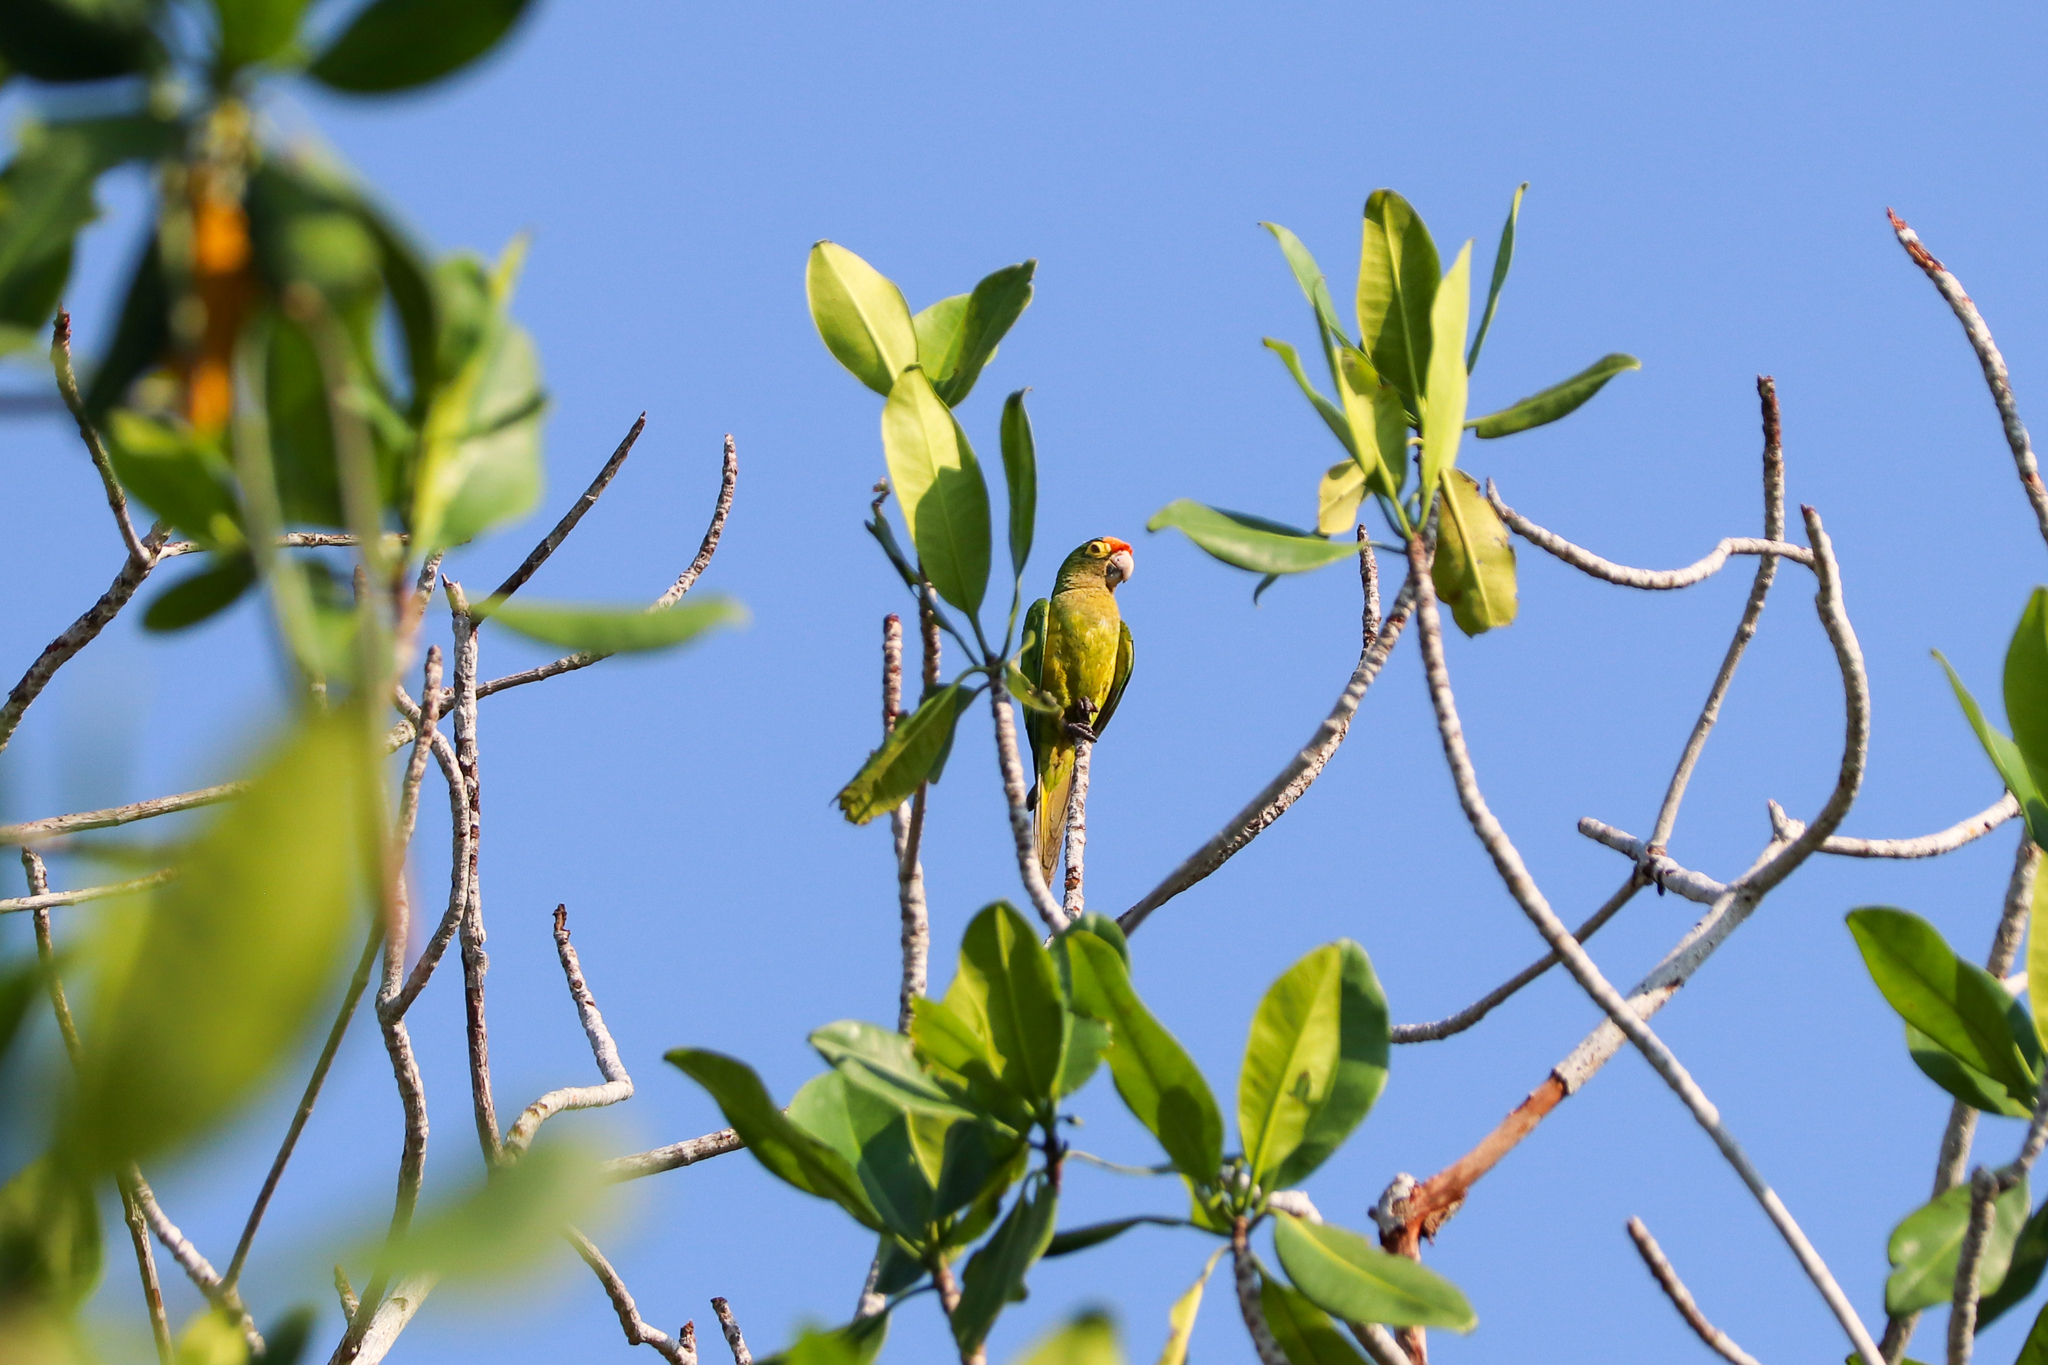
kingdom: Animalia
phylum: Chordata
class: Aves
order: Psittaciformes
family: Psittacidae
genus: Aratinga
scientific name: Aratinga canicularis
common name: Orange-fronted parakeet
